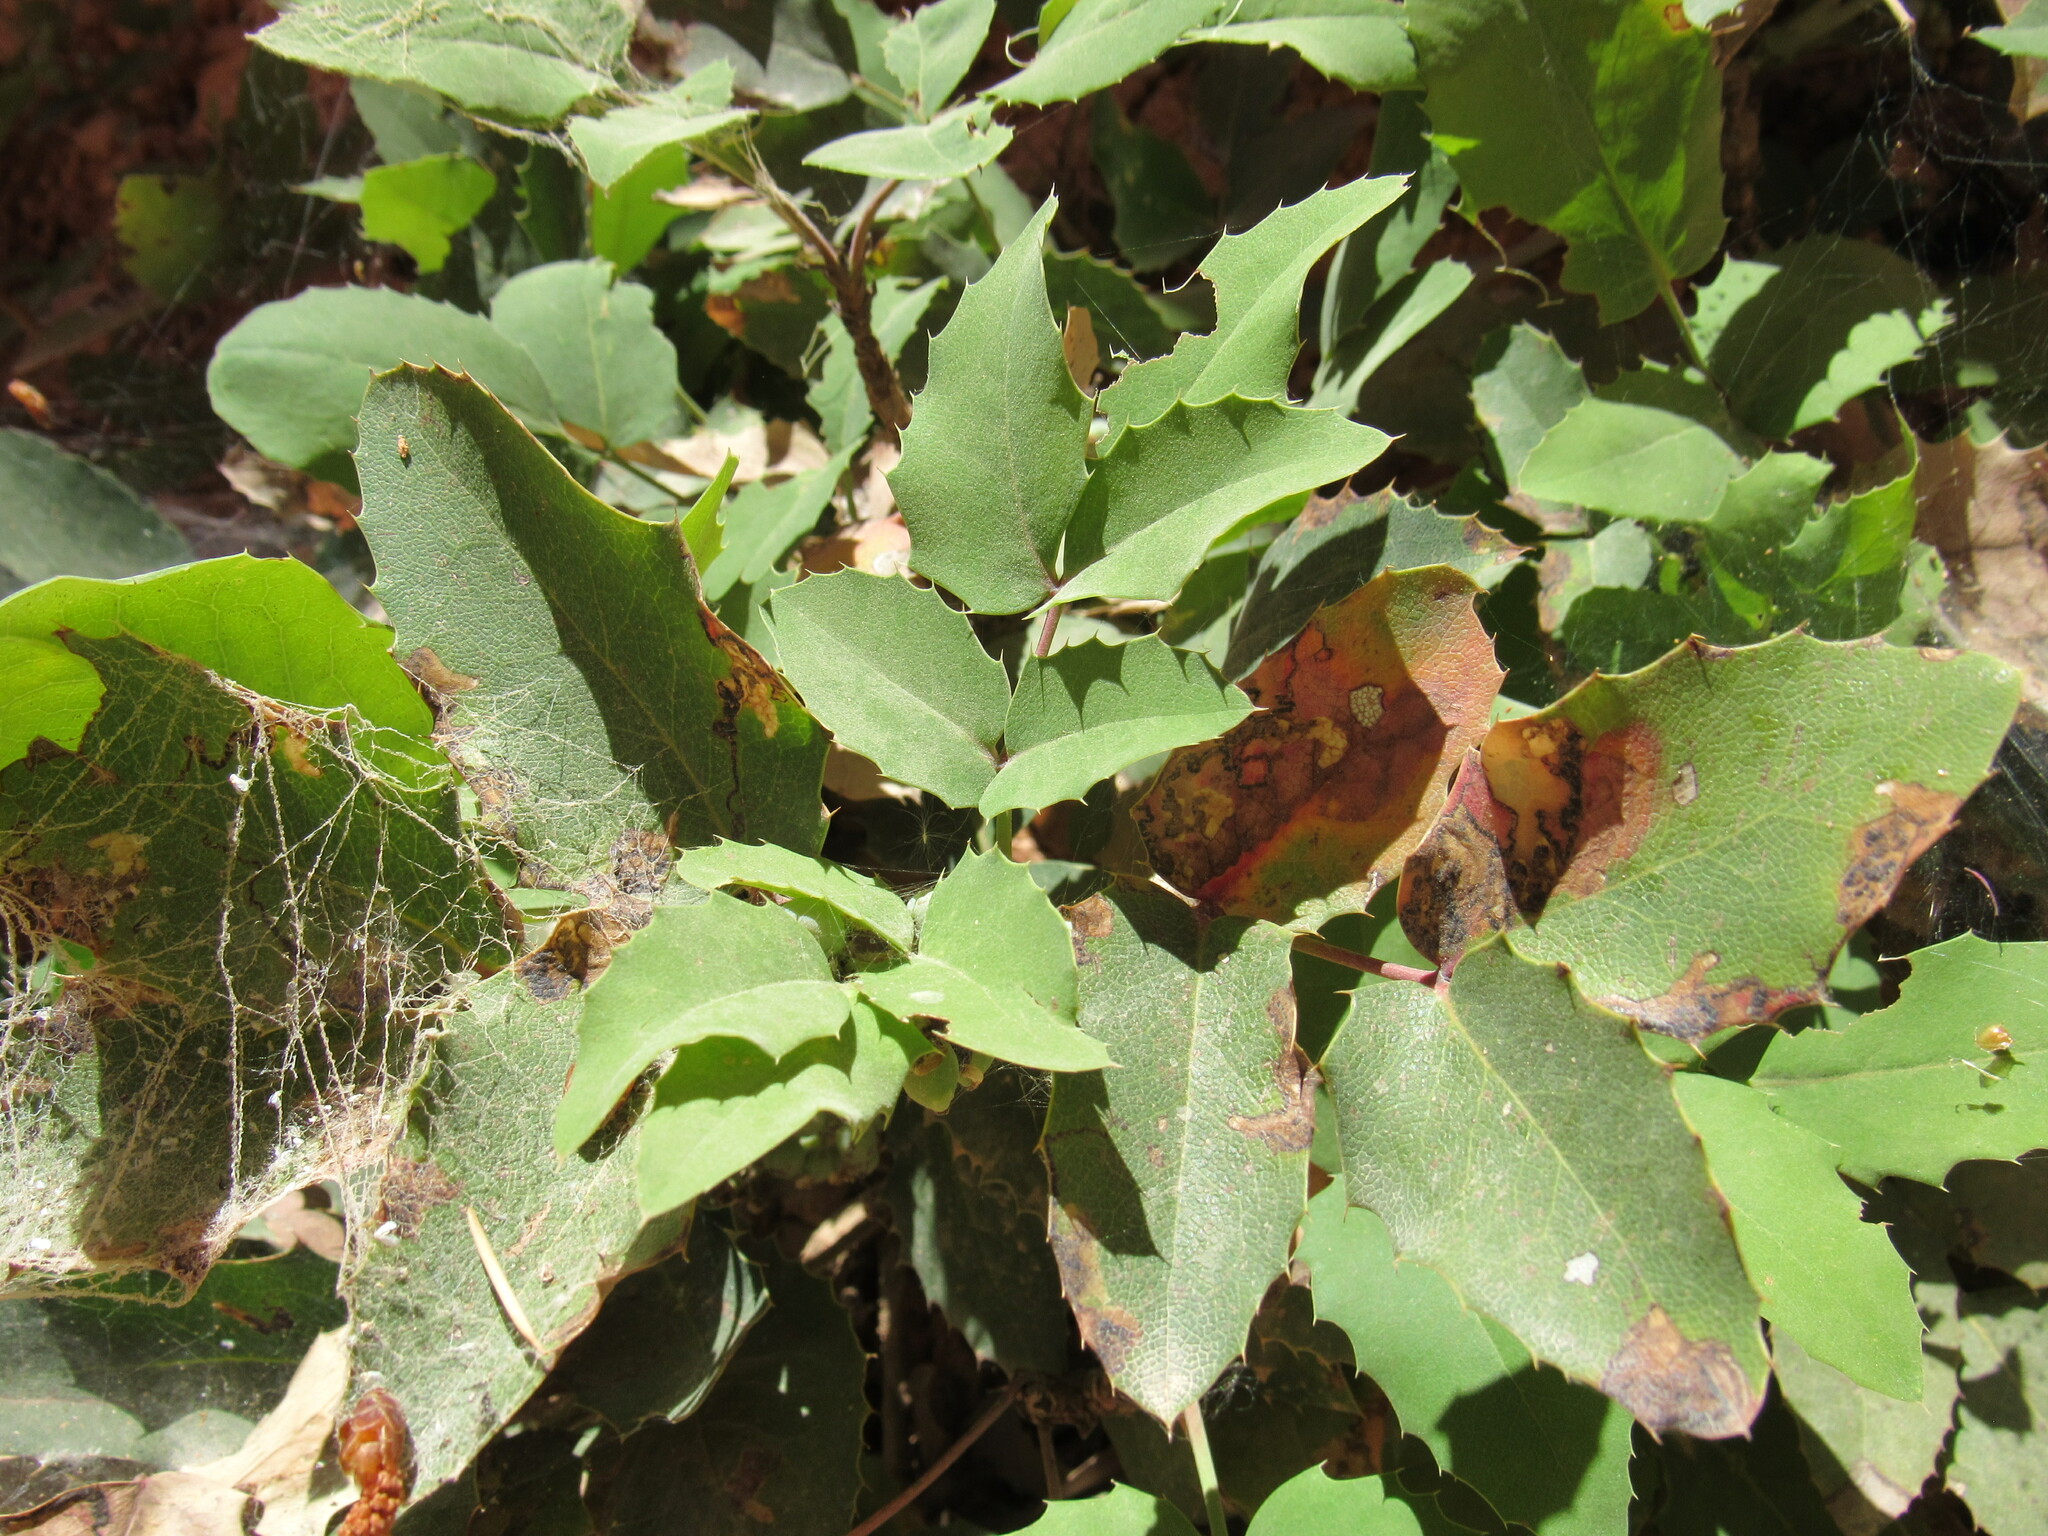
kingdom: Plantae
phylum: Tracheophyta
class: Magnoliopsida
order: Ranunculales
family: Berberidaceae
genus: Mahonia
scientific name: Mahonia repens
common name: Creeping oregon-grape
